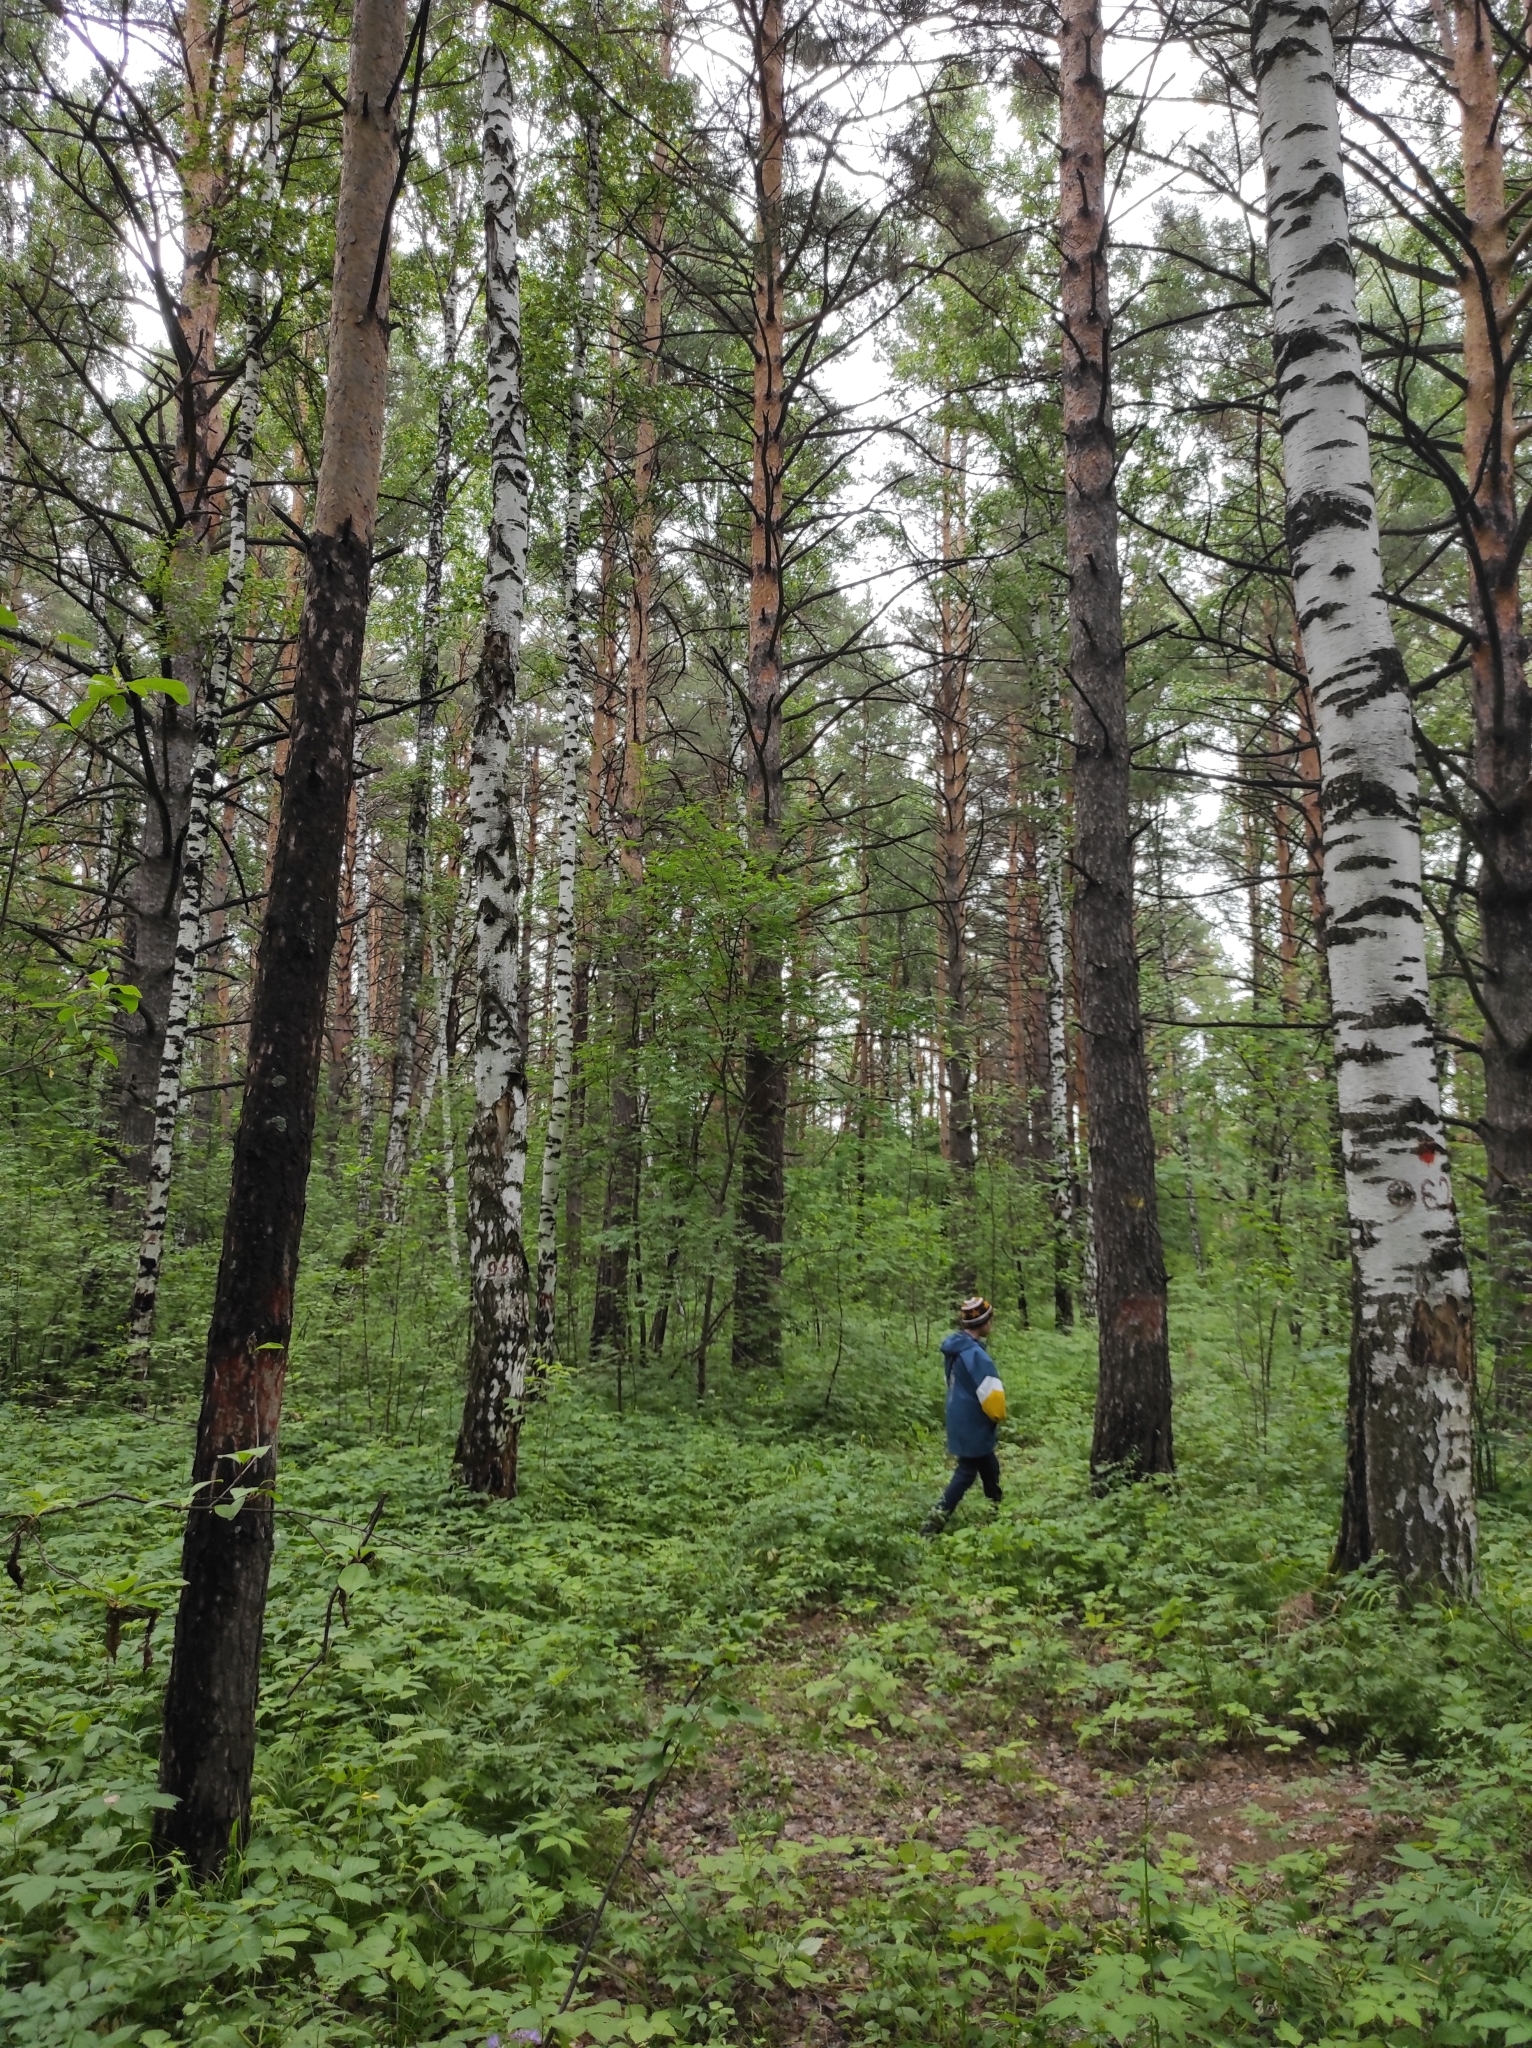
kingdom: Plantae
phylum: Tracheophyta
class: Pinopsida
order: Pinales
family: Pinaceae
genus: Pinus
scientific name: Pinus sylvestris
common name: Scots pine
